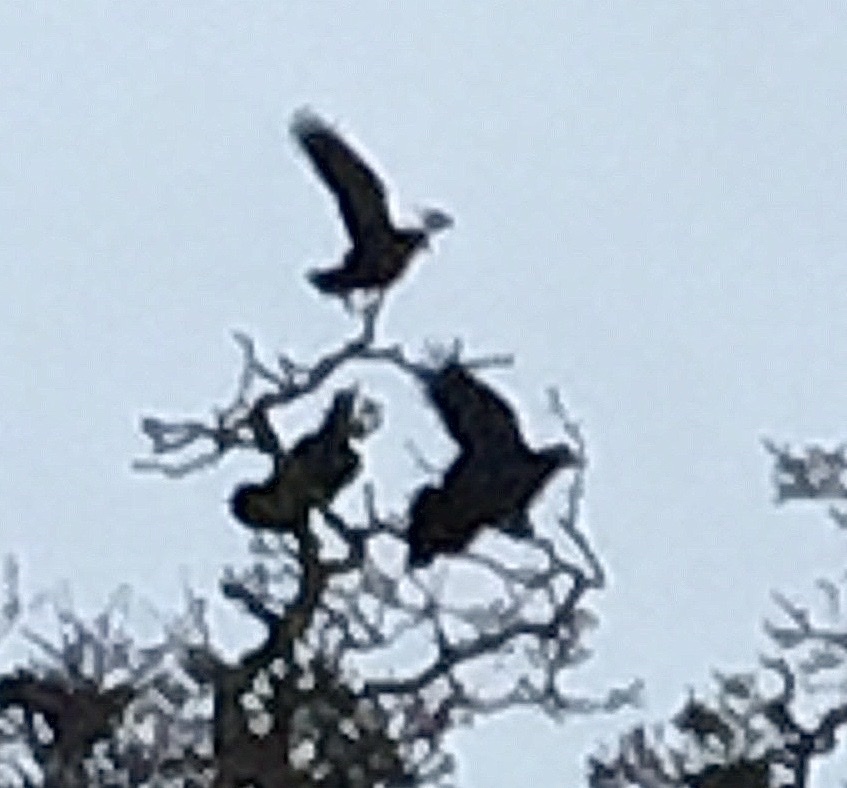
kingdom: Animalia
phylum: Chordata
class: Aves
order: Passeriformes
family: Corvidae
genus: Corvus
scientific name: Corvus frugilegus
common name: Rook
